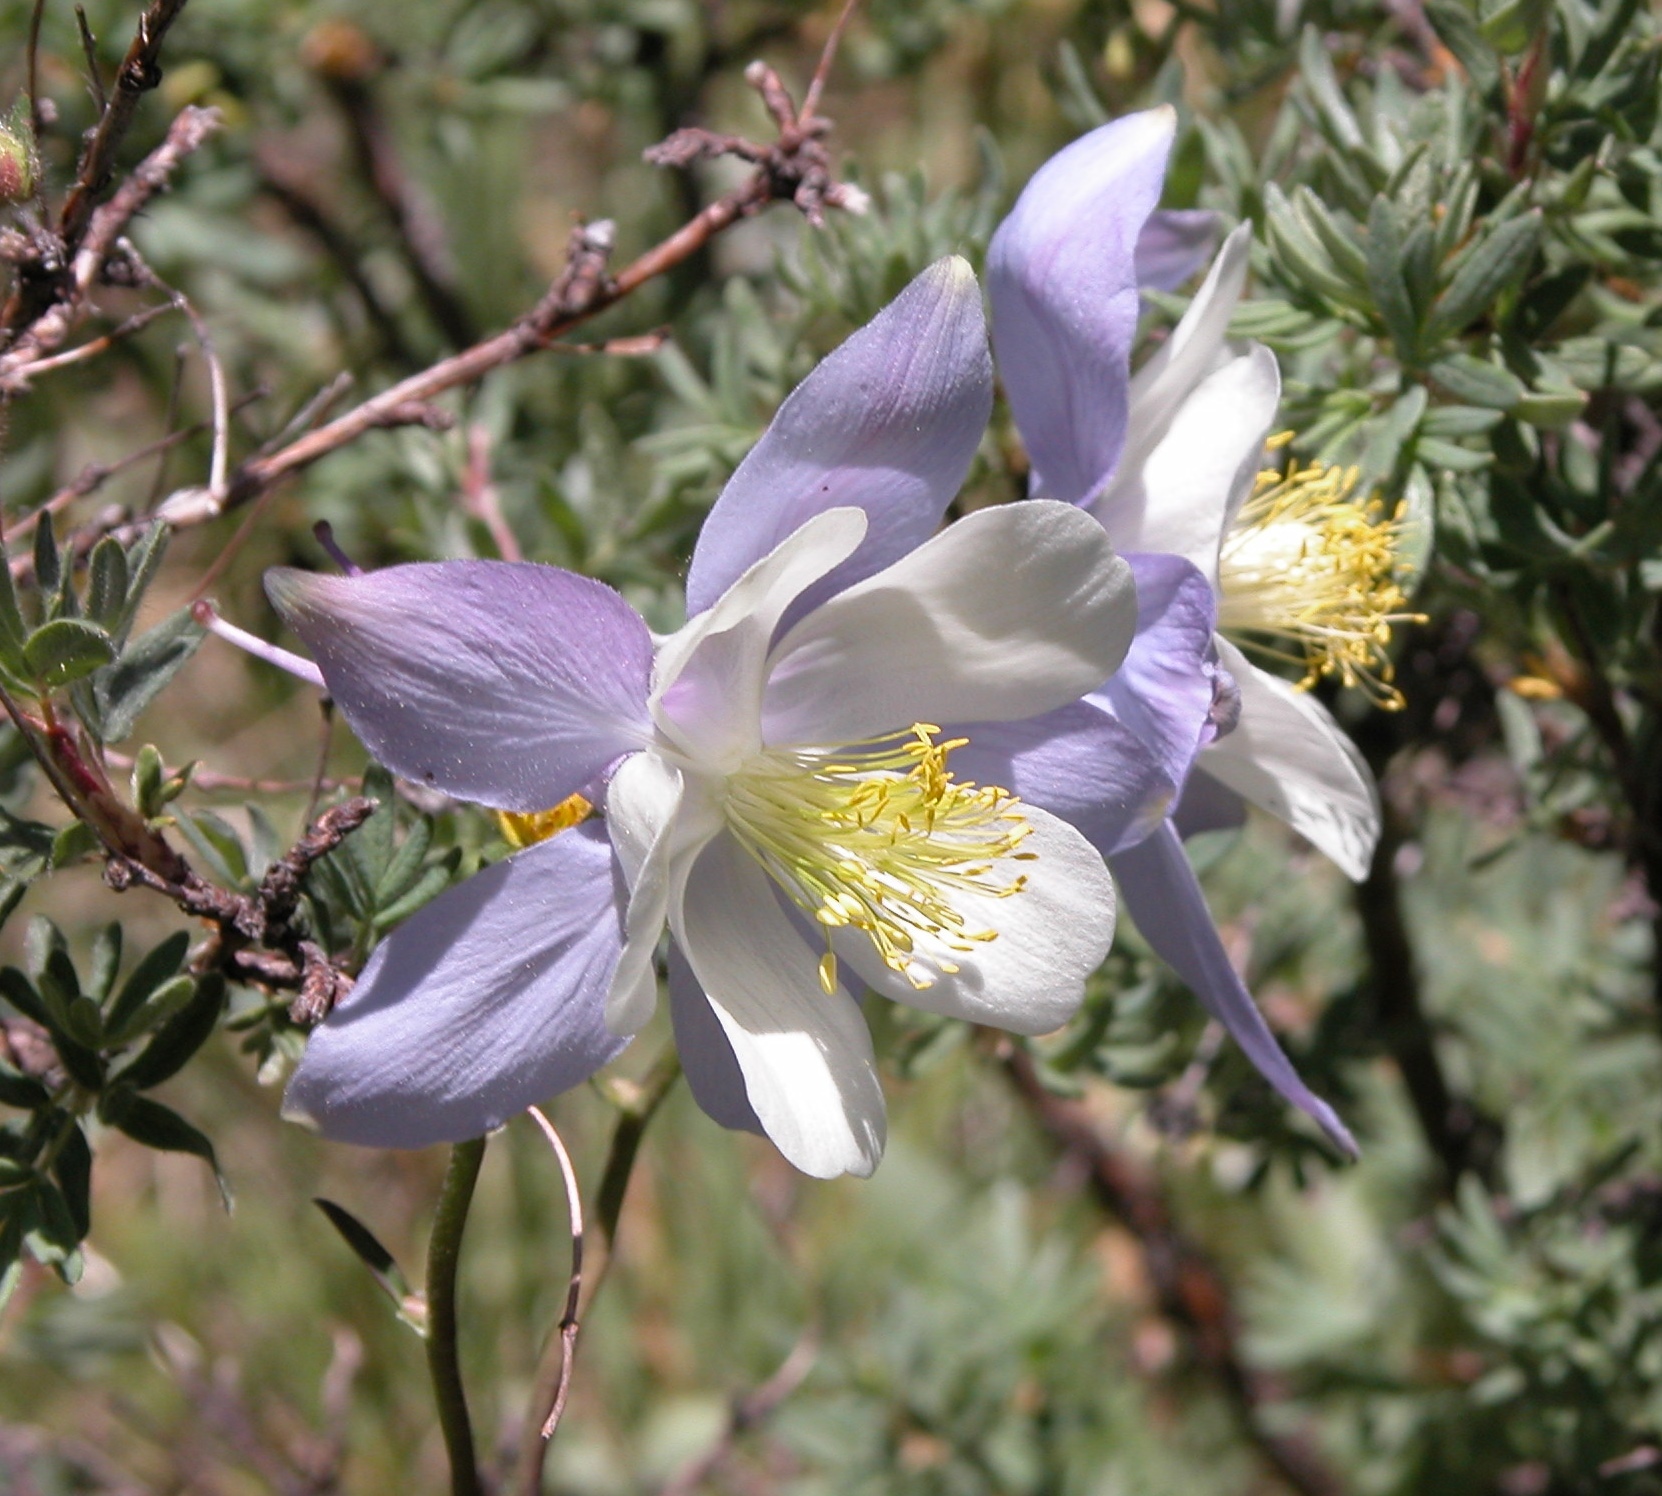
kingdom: Plantae
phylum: Tracheophyta
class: Magnoliopsida
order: Ranunculales
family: Ranunculaceae
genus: Aquilegia
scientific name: Aquilegia coerulea
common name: Rocky mountain columbine
